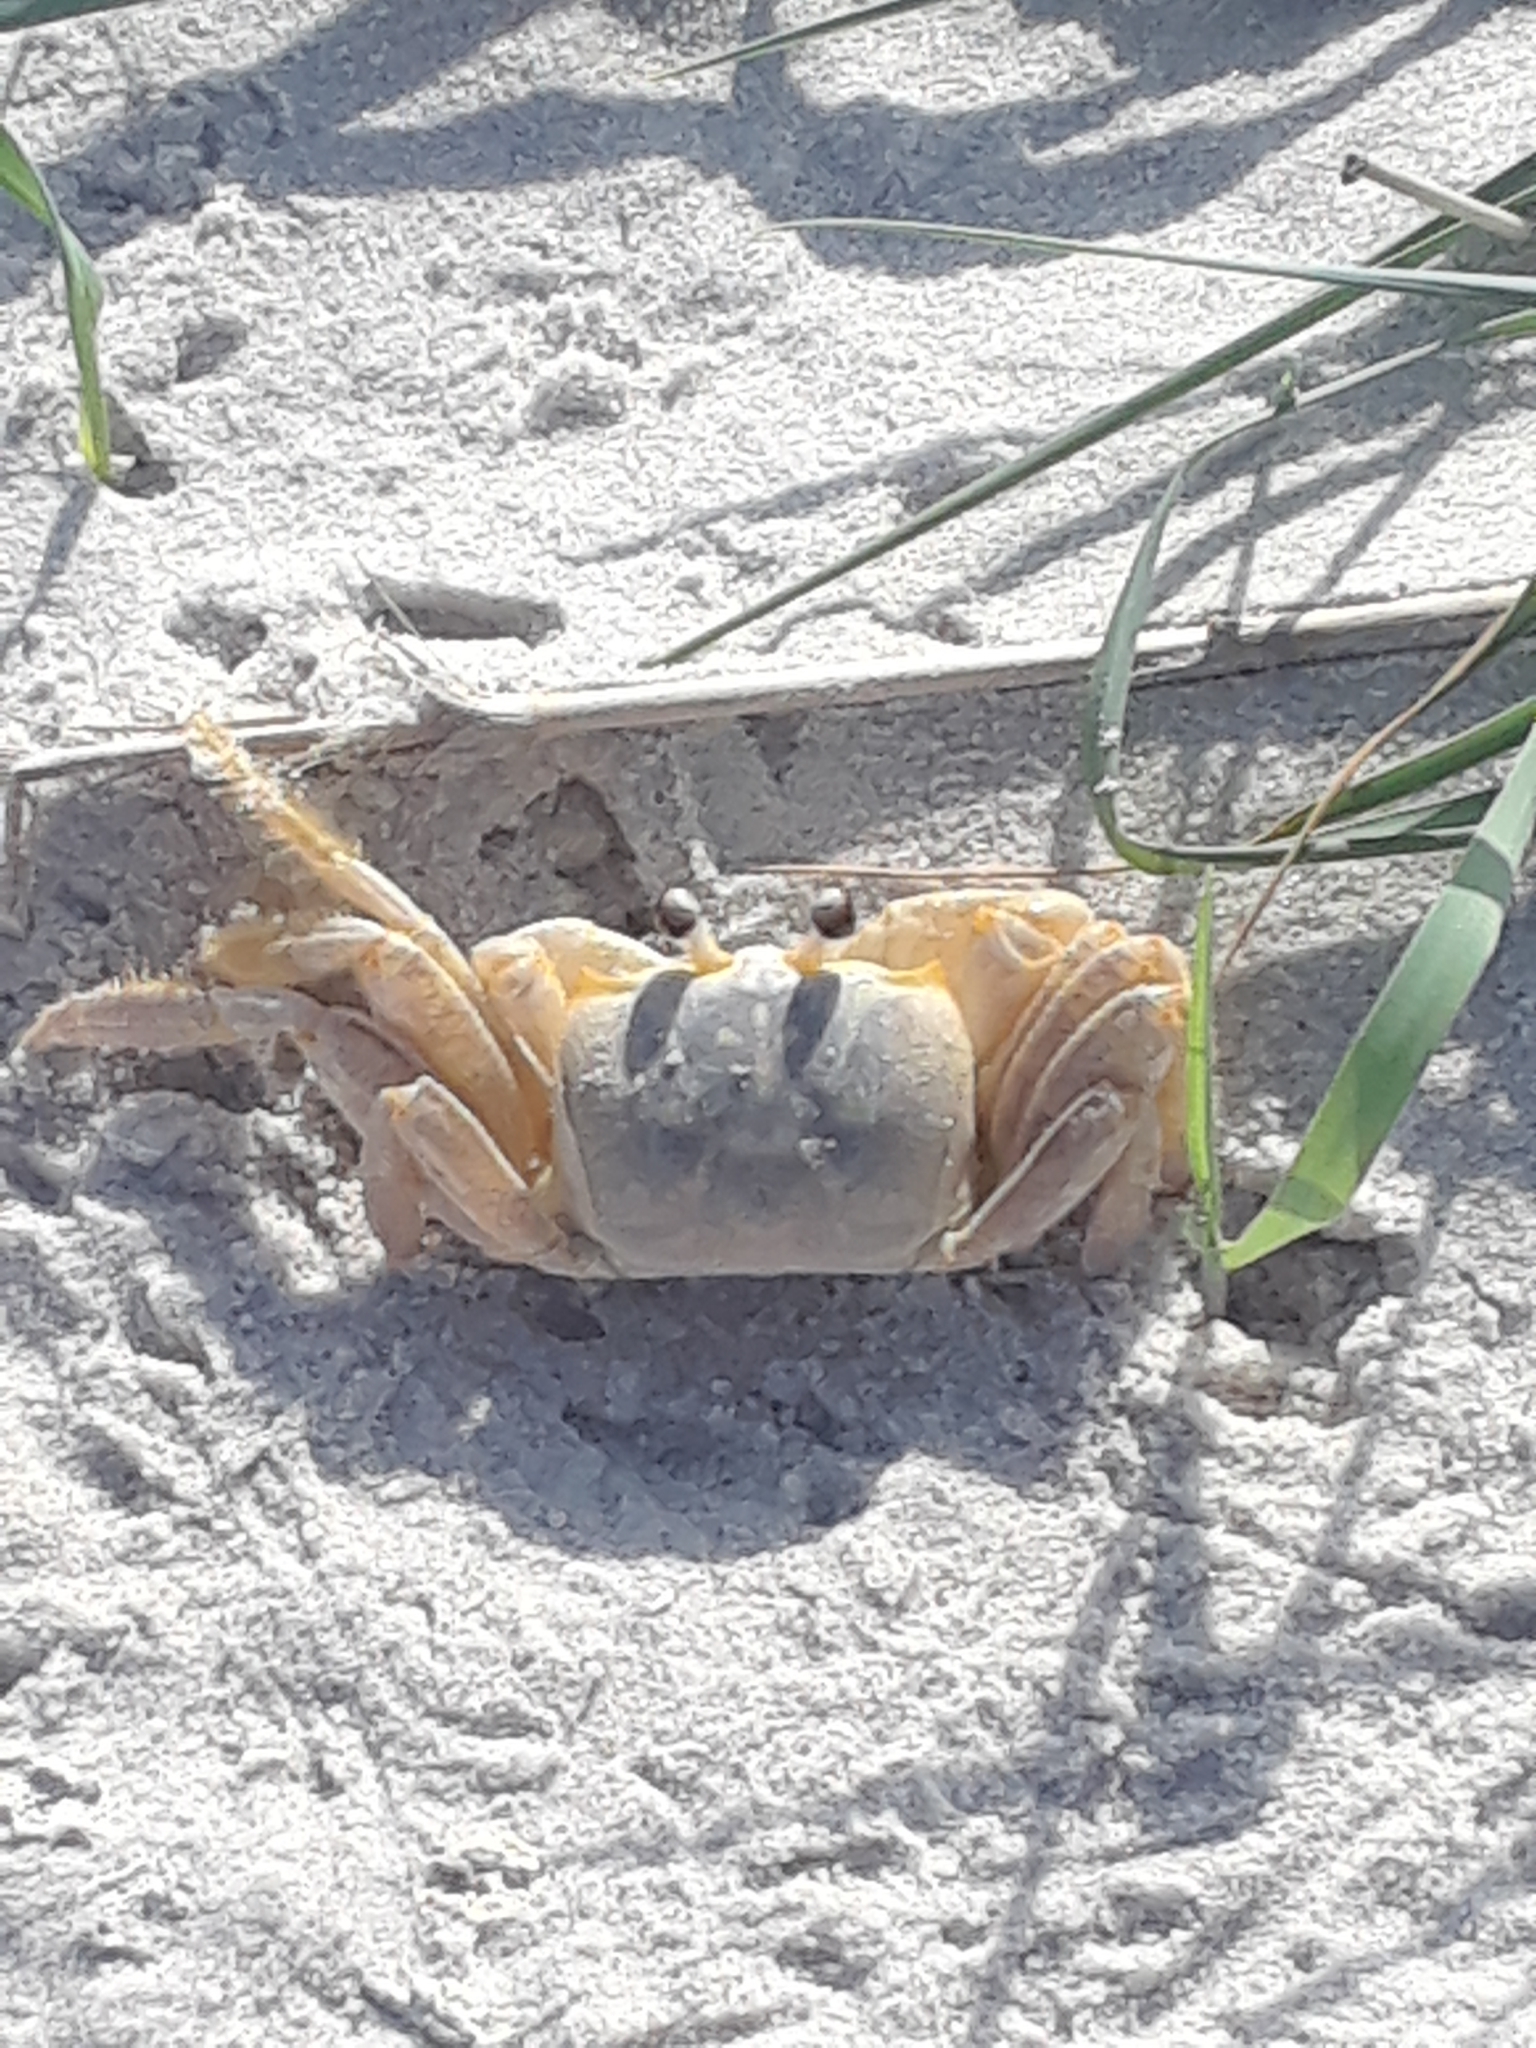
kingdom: Animalia
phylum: Arthropoda
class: Malacostraca
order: Decapoda
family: Ocypodidae
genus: Ocypode
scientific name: Ocypode quadrata
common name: Ghost crab
